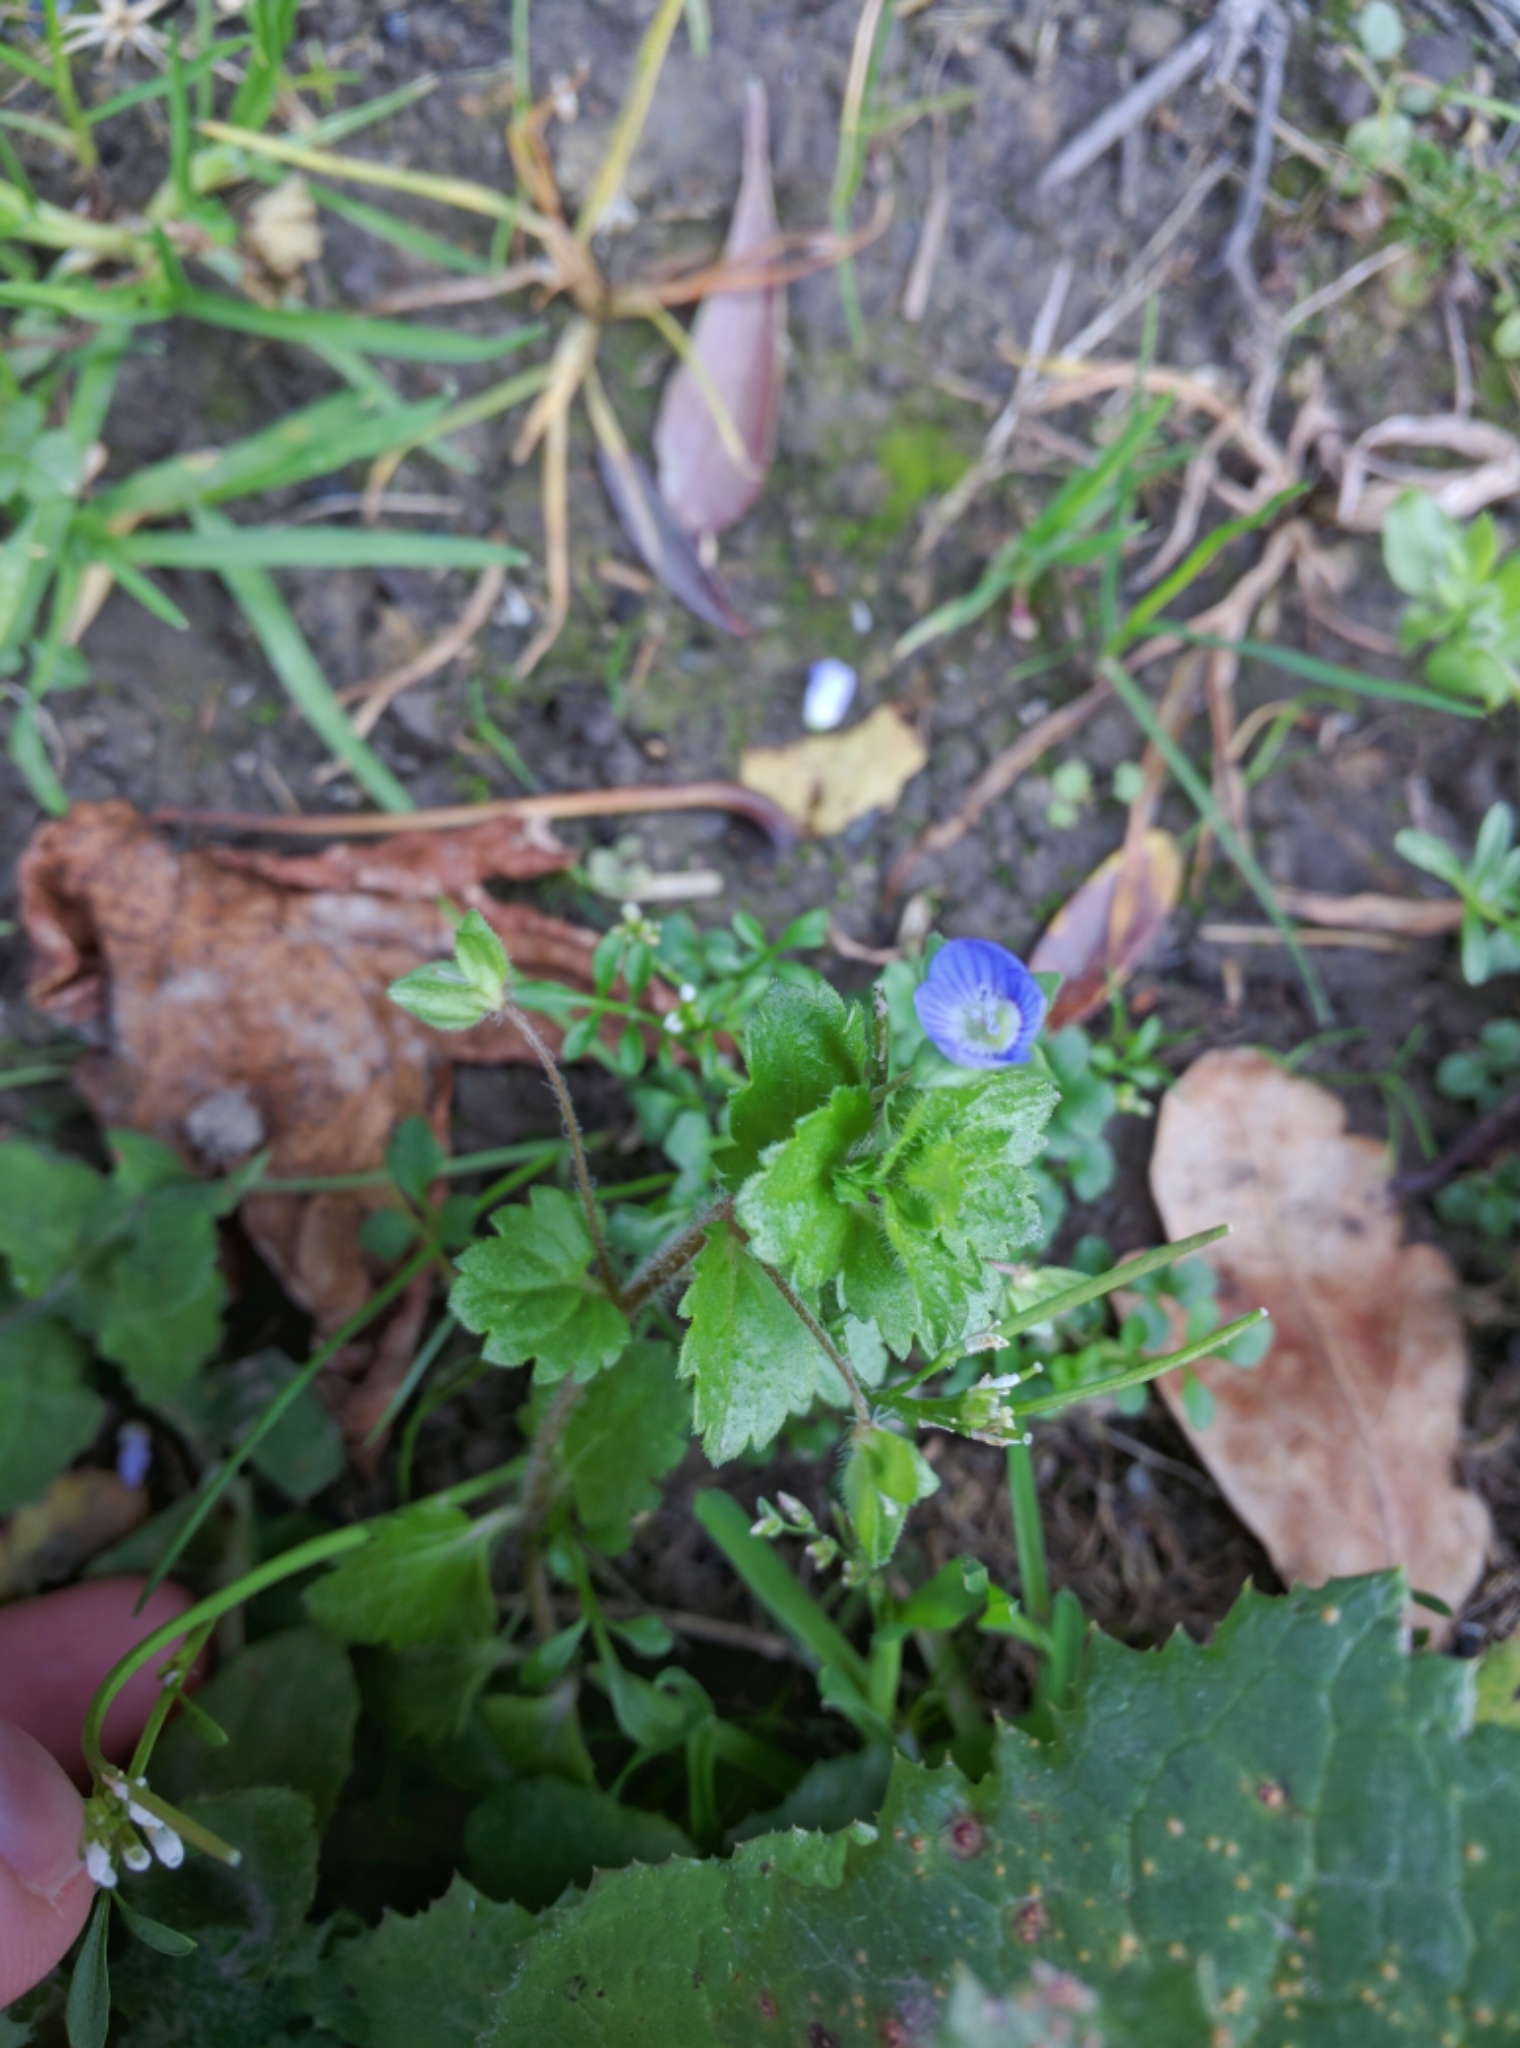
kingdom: Plantae
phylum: Tracheophyta
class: Magnoliopsida
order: Lamiales
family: Plantaginaceae
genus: Veronica
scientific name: Veronica persica
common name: Common field-speedwell
